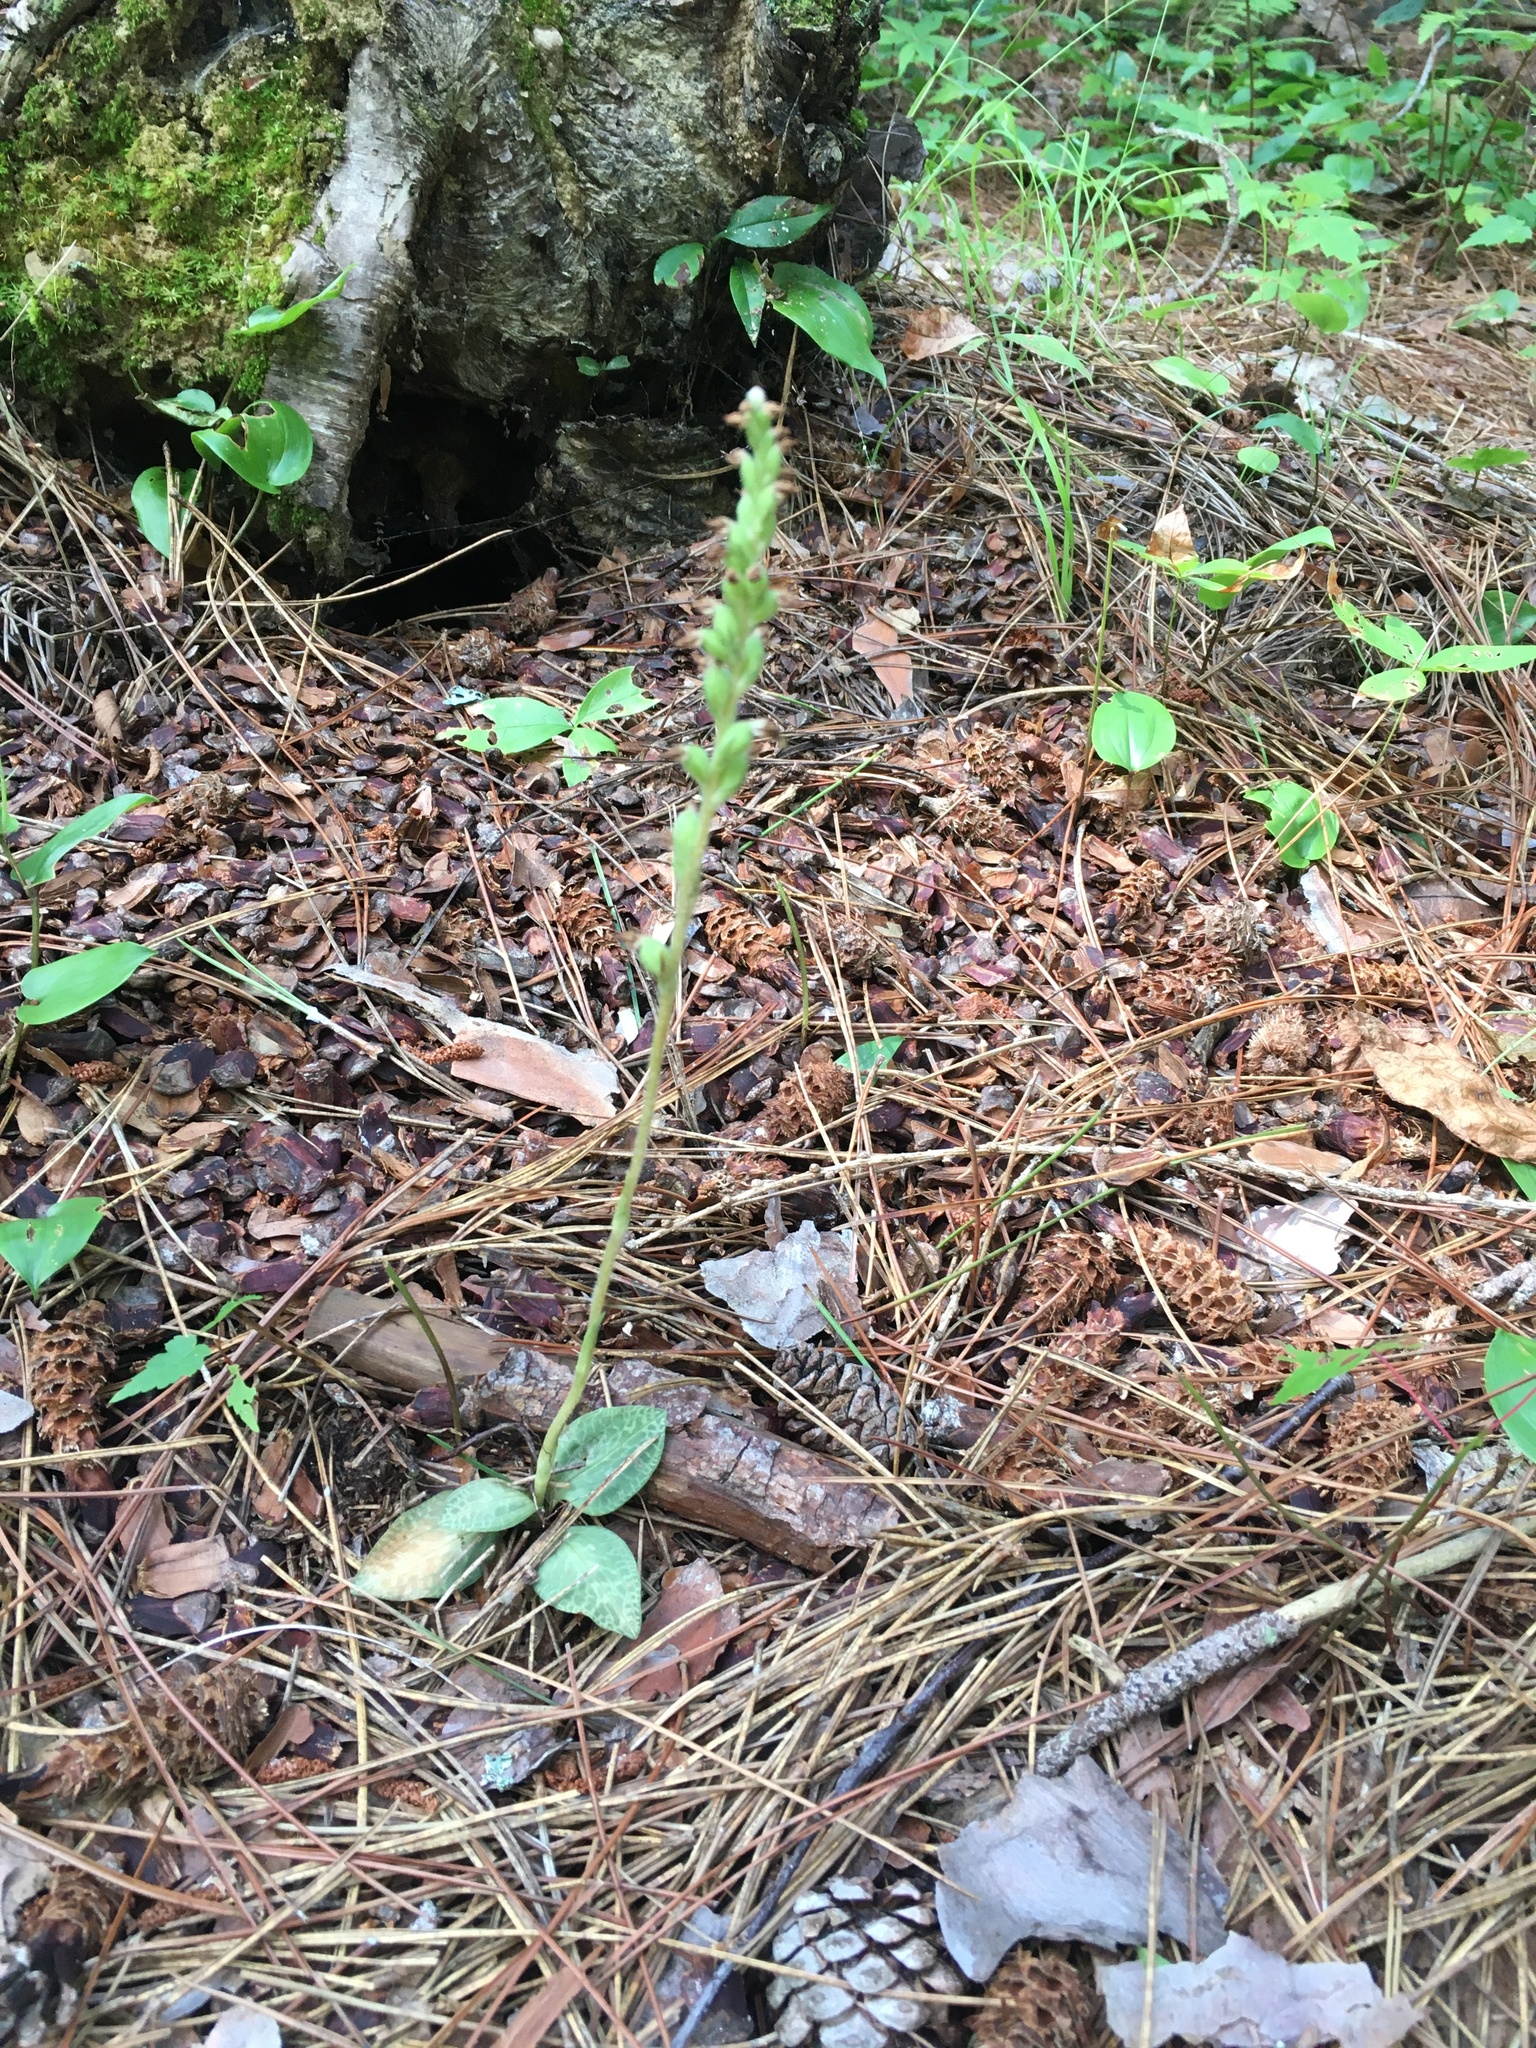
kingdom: Plantae
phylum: Tracheophyta
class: Liliopsida
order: Asparagales
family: Orchidaceae
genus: Goodyera
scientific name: Goodyera tesselata
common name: Checkered rattlesnake-plantain
